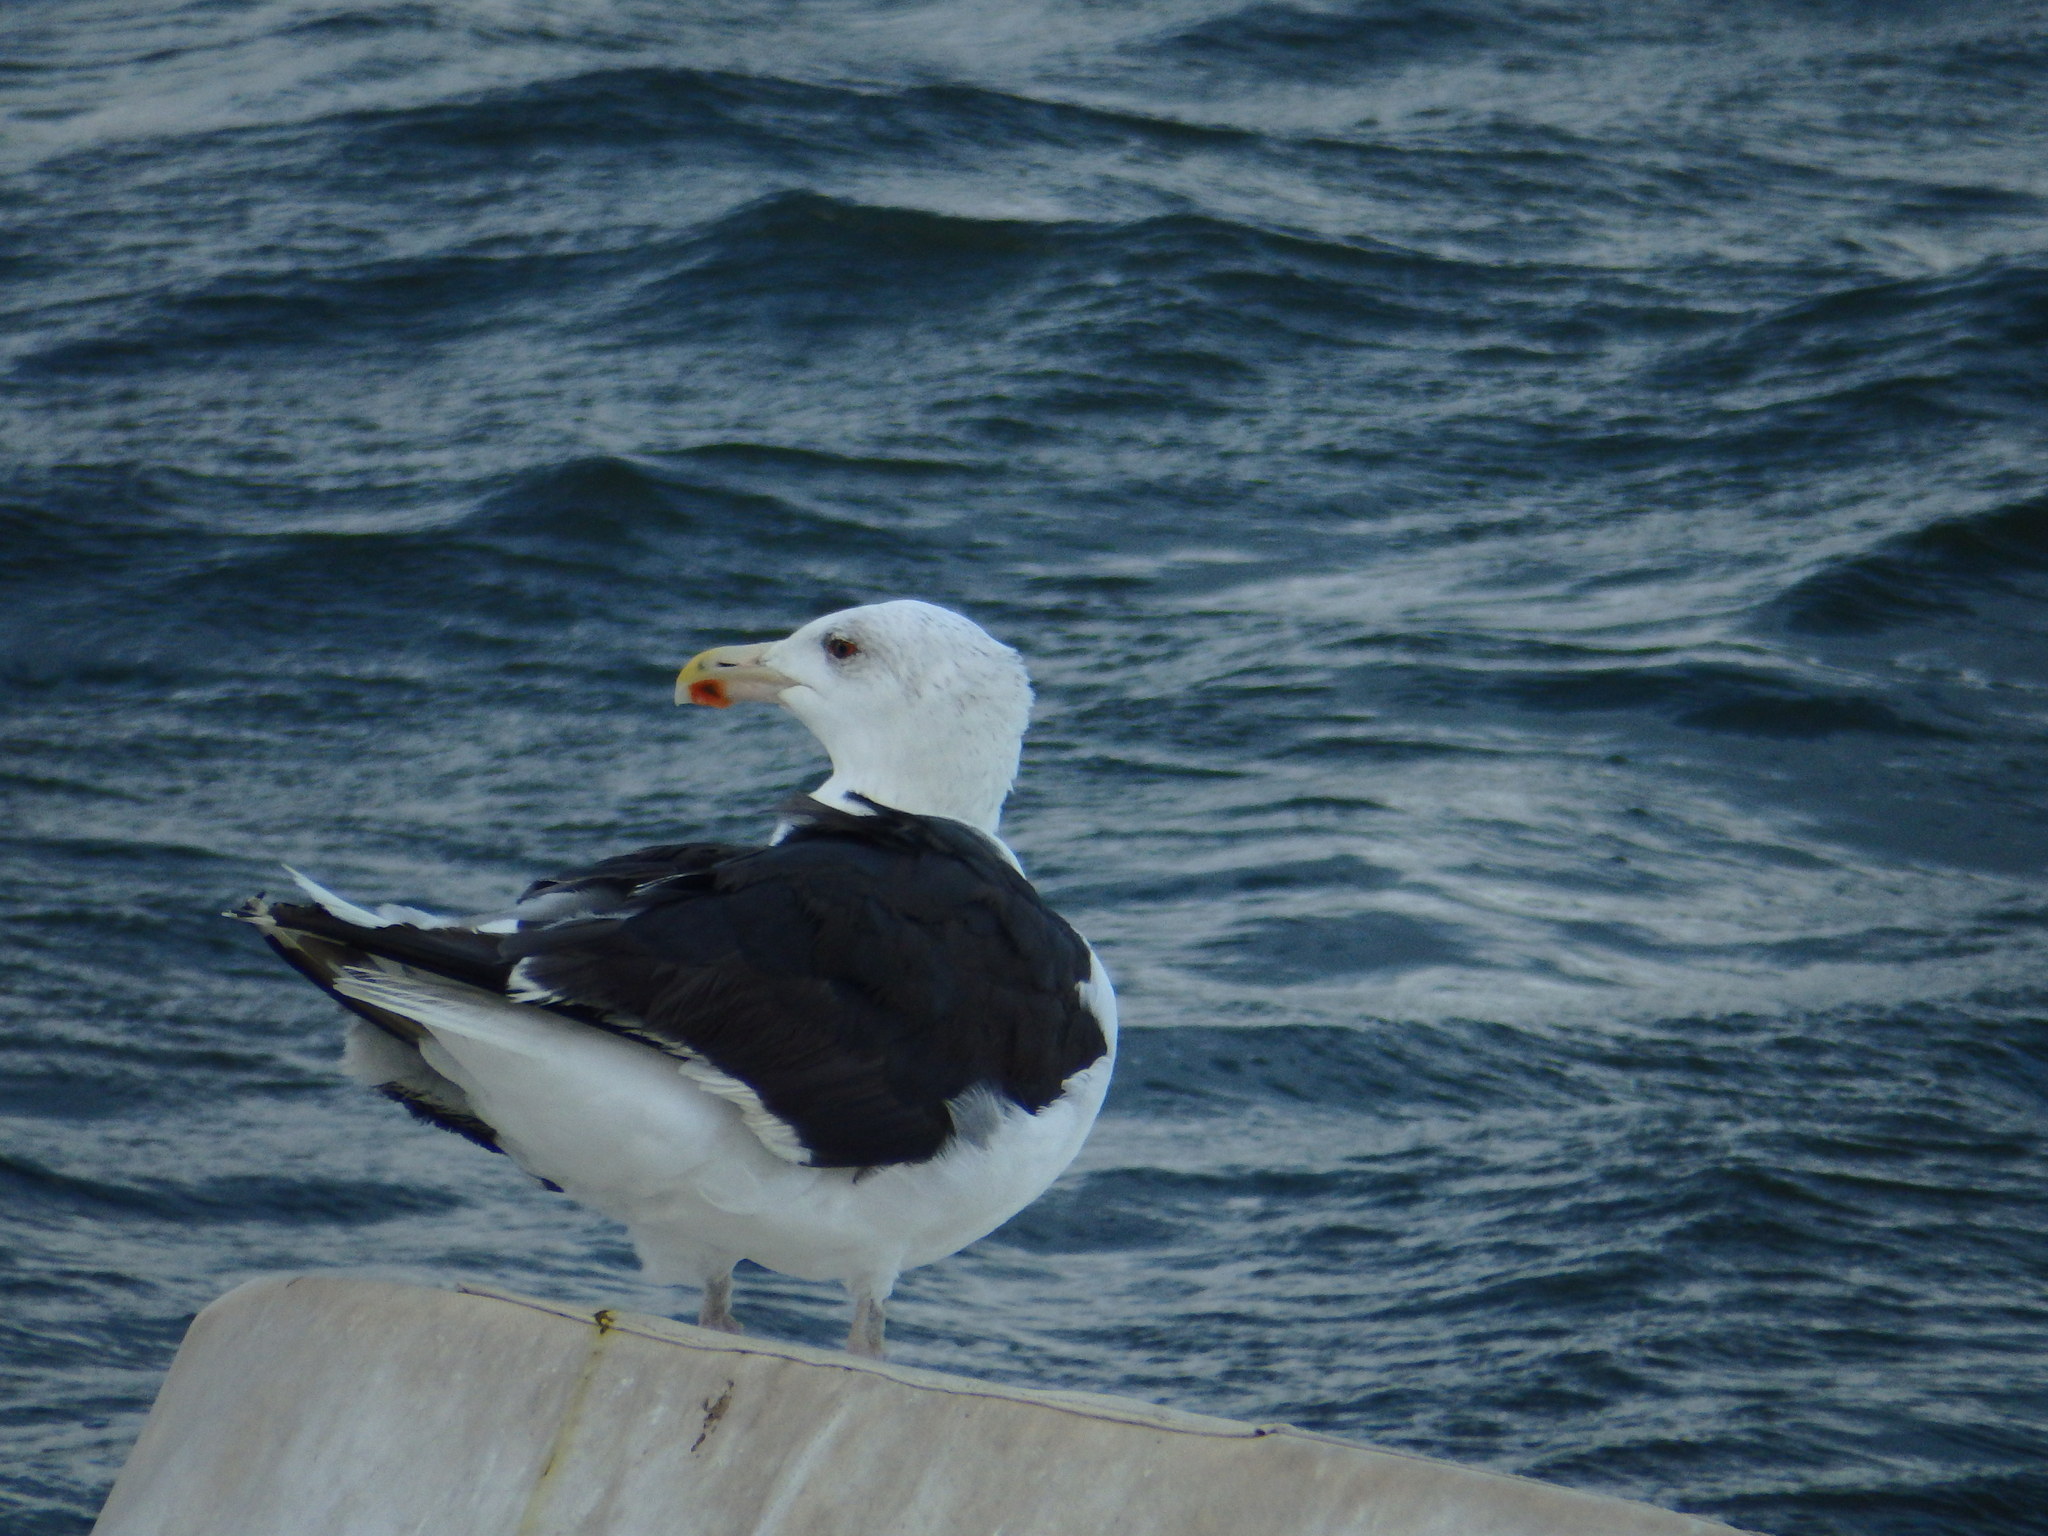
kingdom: Animalia
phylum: Chordata
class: Aves
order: Charadriiformes
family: Laridae
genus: Larus
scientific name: Larus marinus
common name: Great black-backed gull
